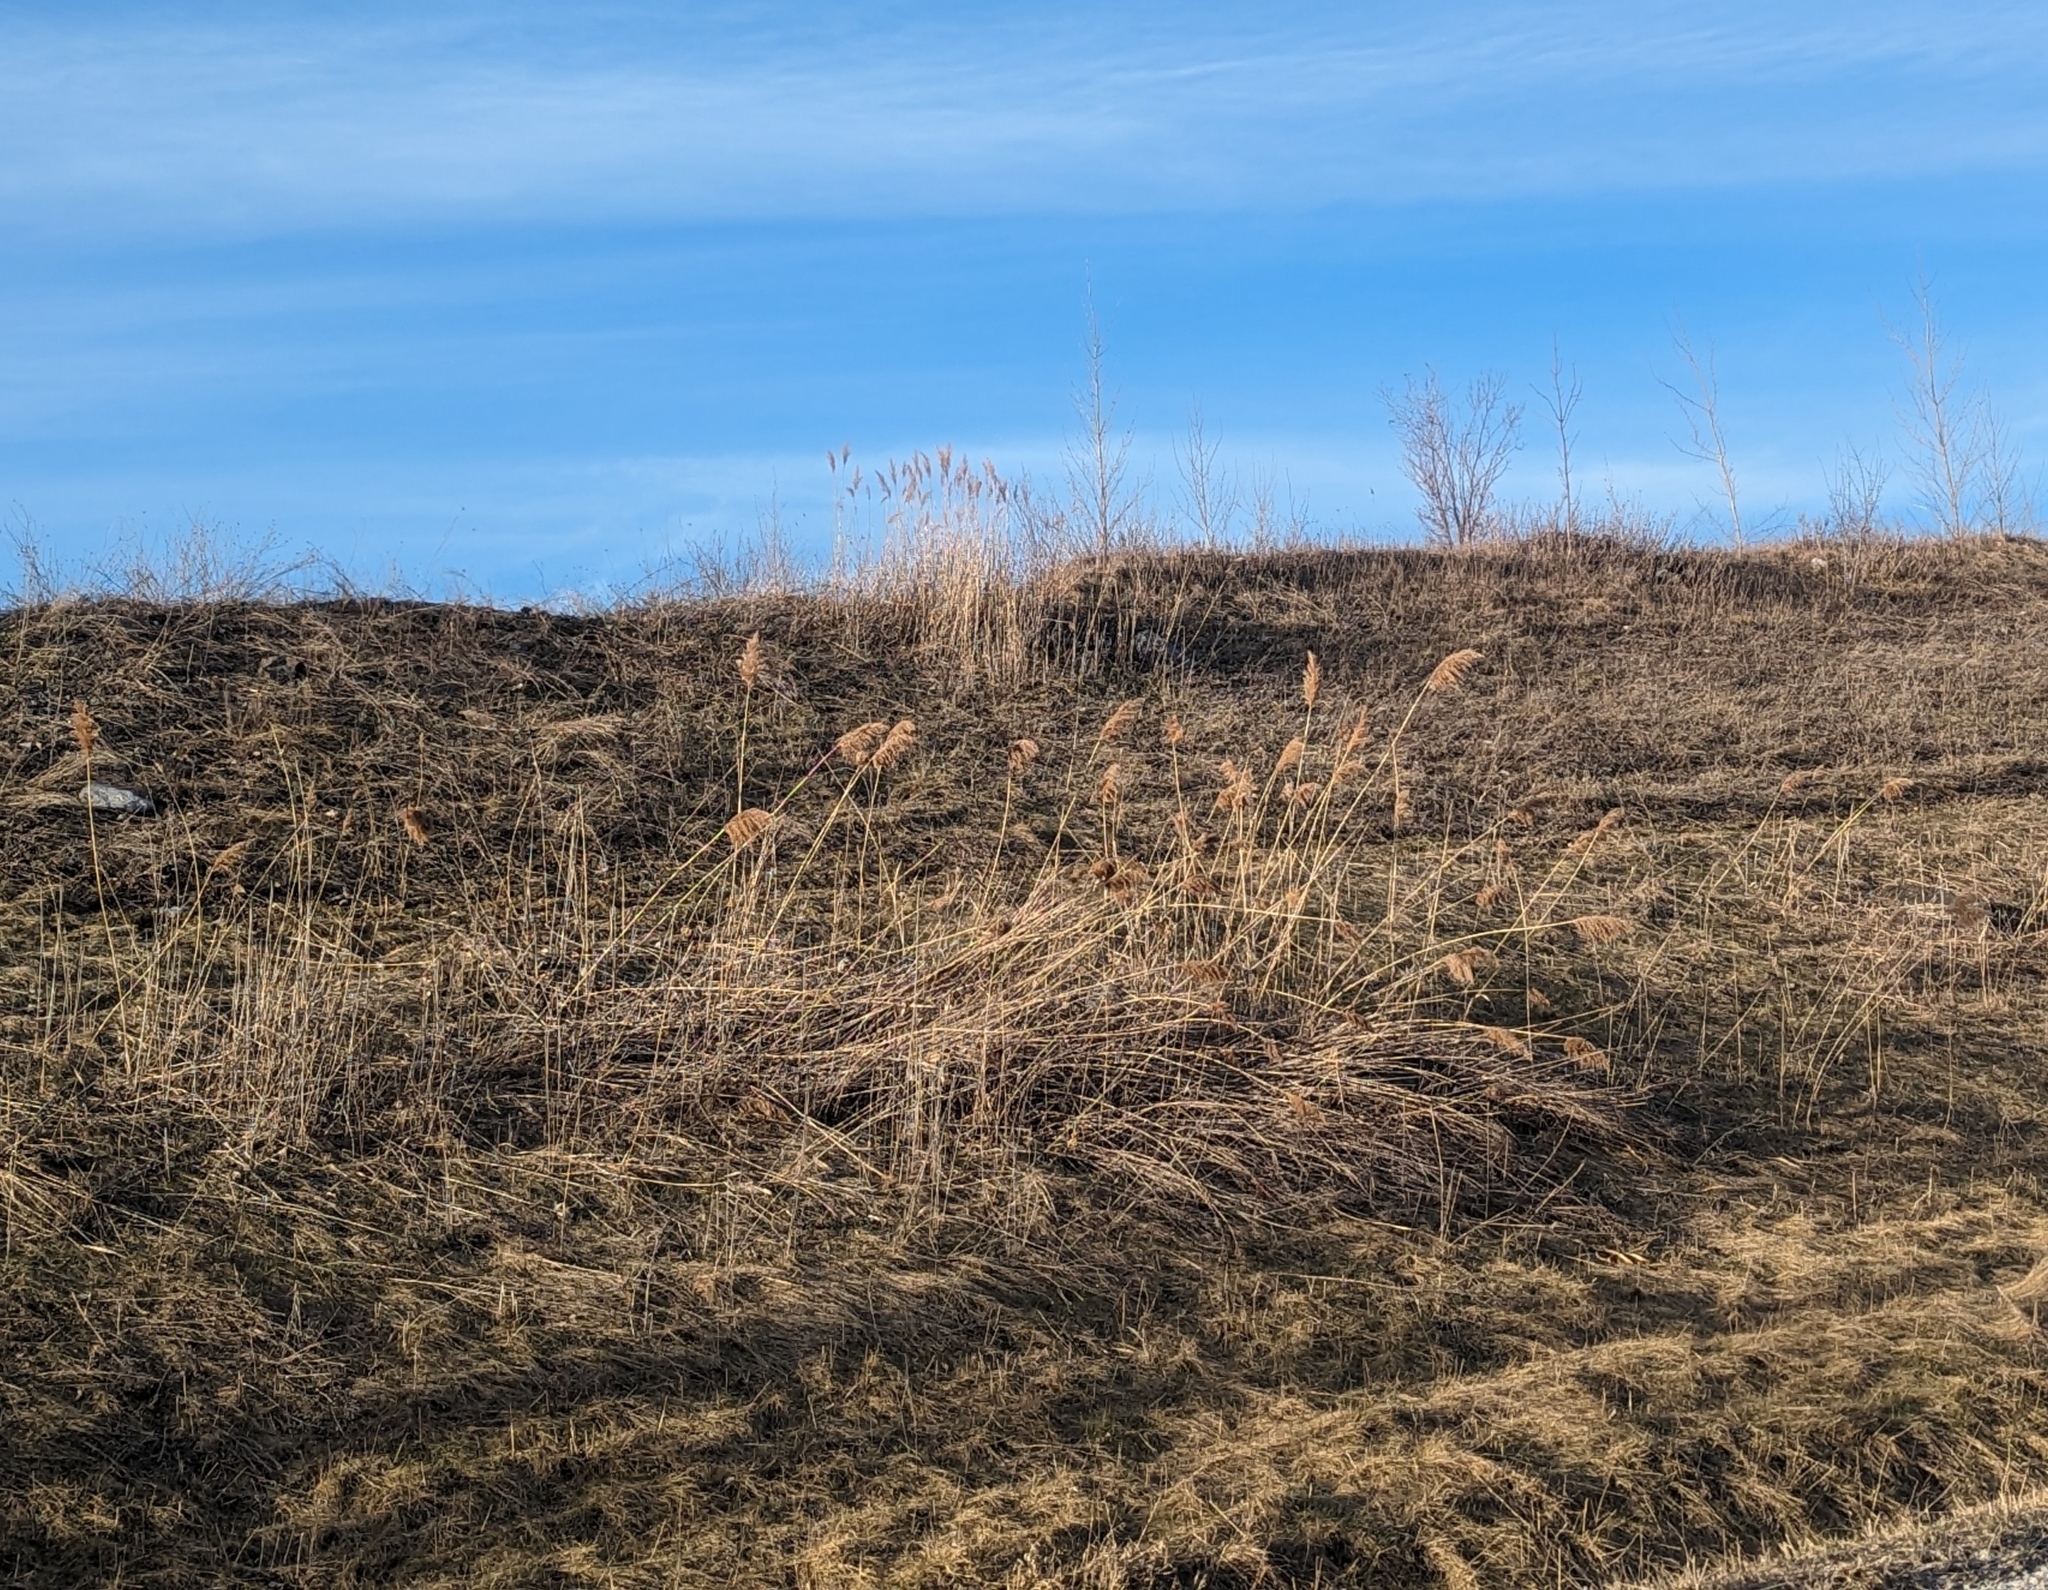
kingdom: Plantae
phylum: Tracheophyta
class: Liliopsida
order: Poales
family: Poaceae
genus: Phragmites
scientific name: Phragmites australis
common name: Common reed
